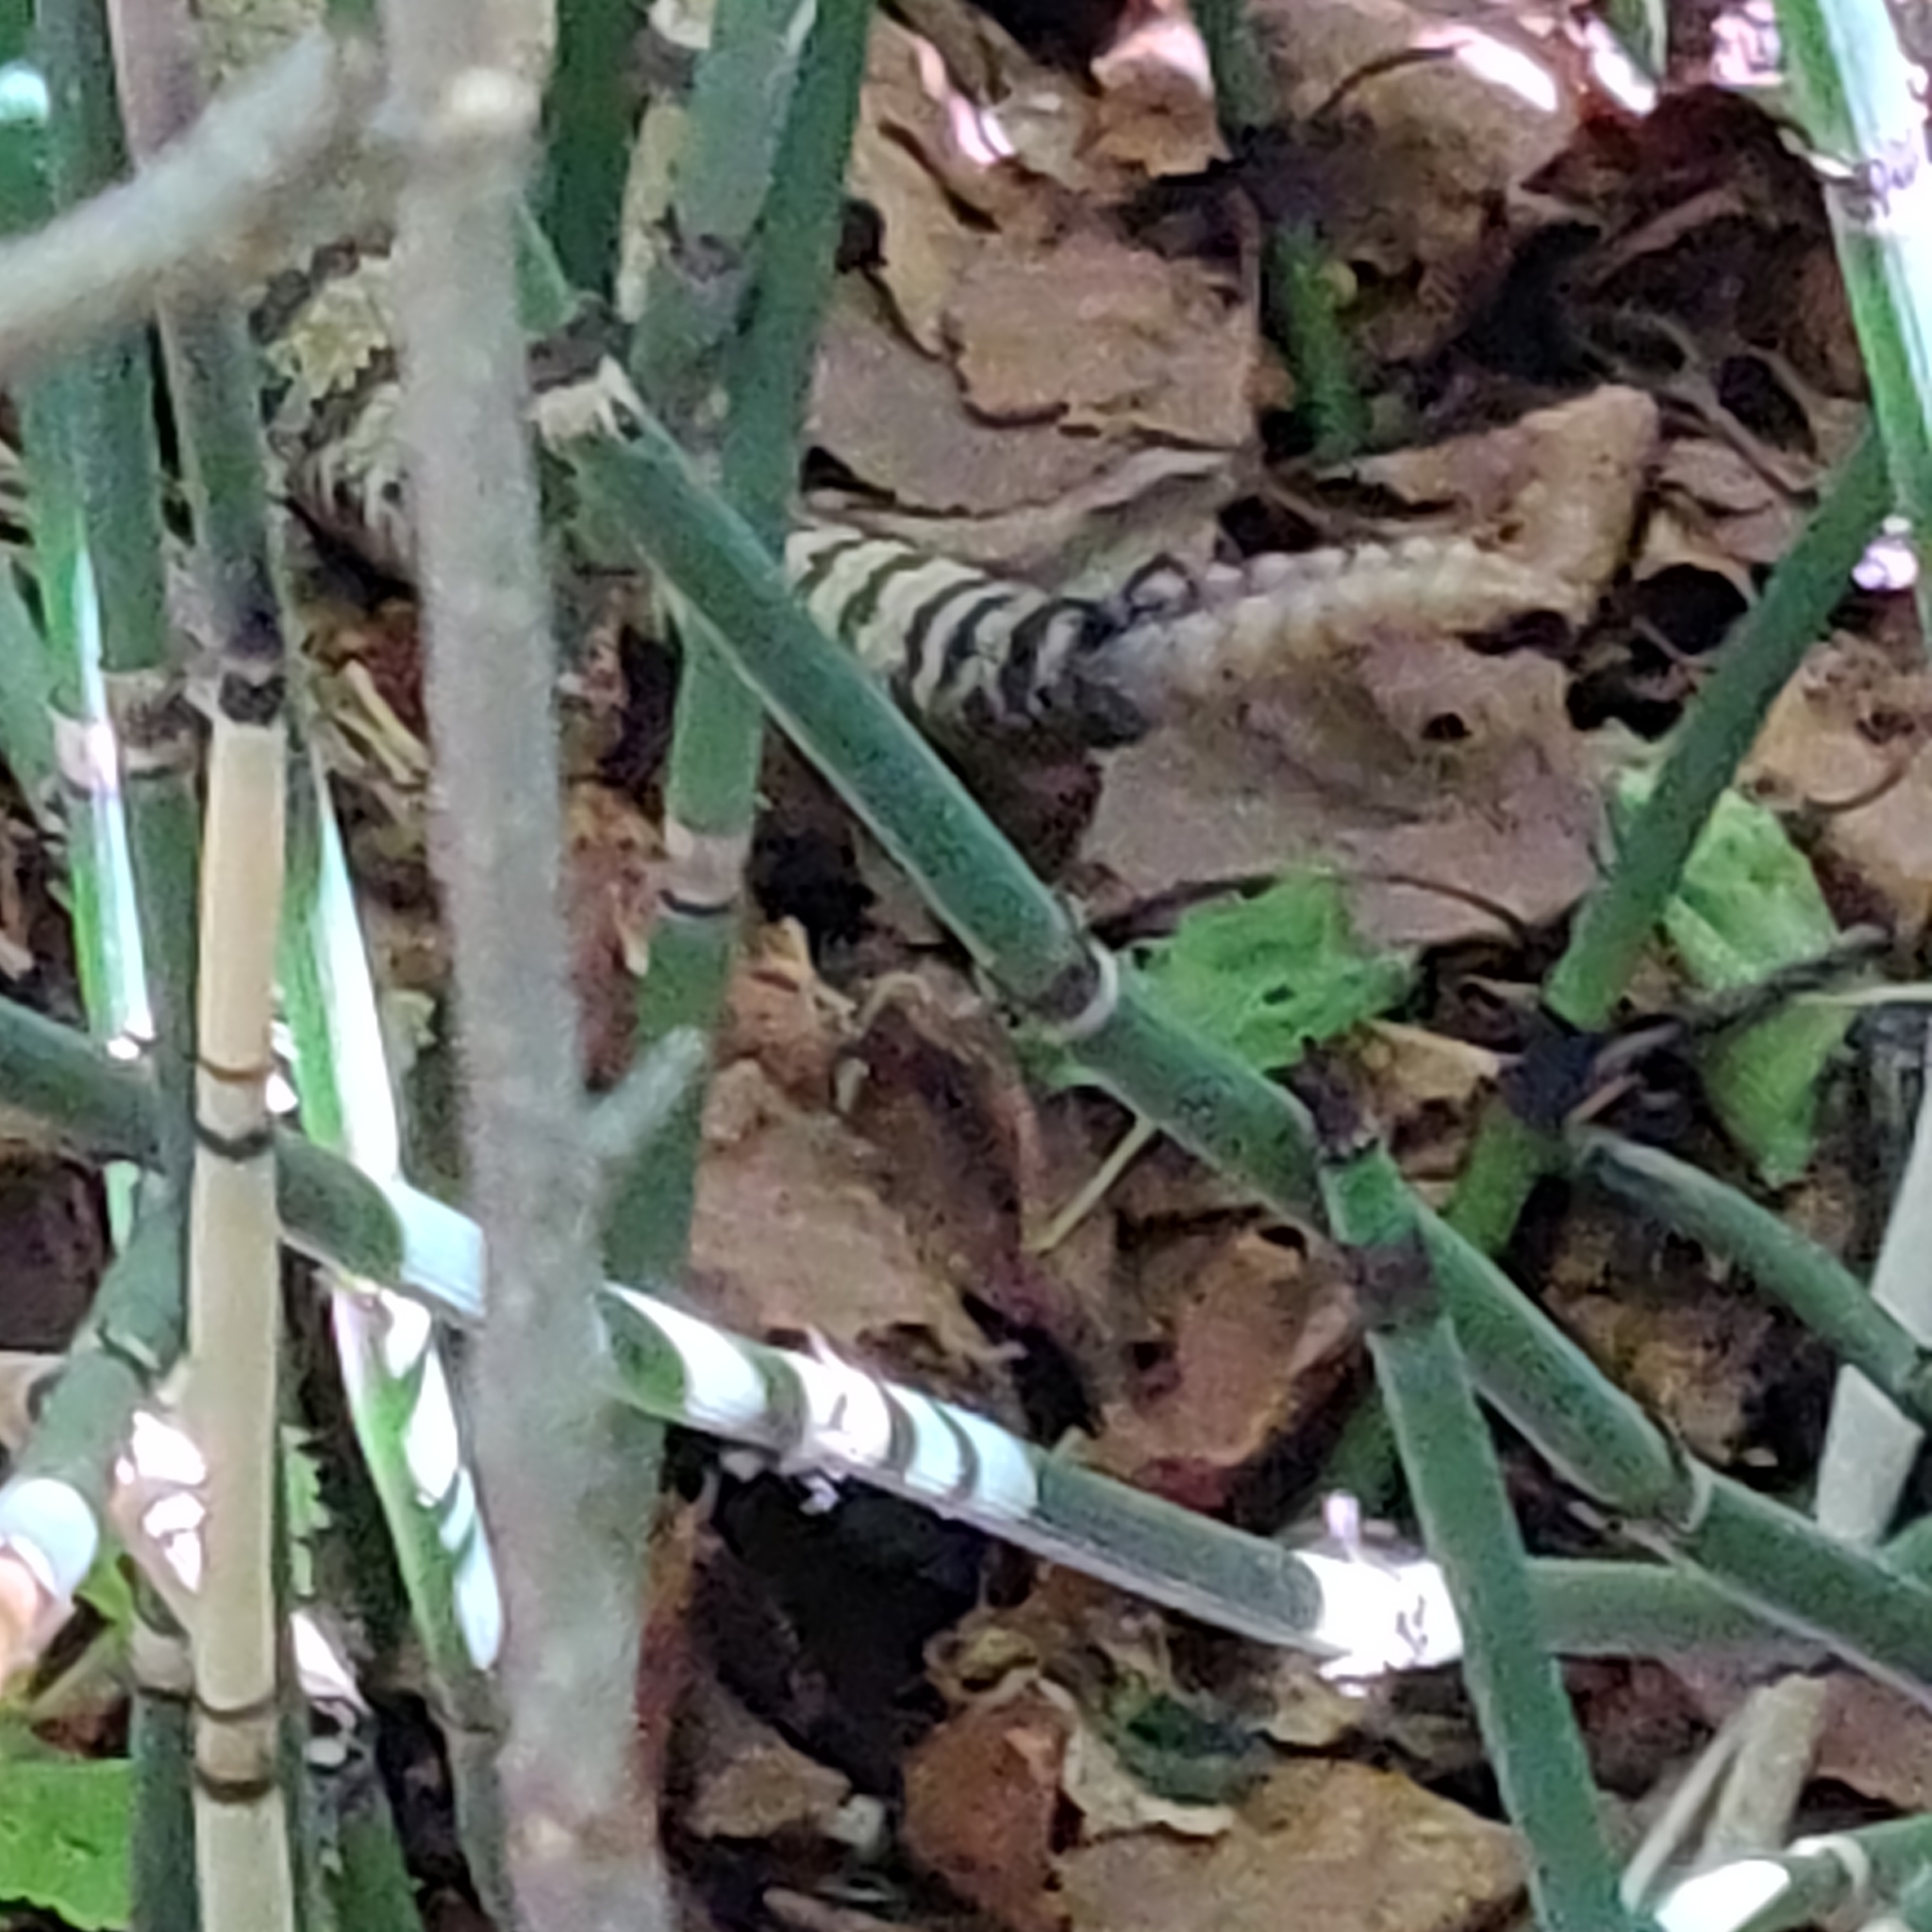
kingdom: Animalia
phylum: Chordata
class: Squamata
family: Viperidae
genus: Crotalus
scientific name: Crotalus oreganus
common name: Abyssus
